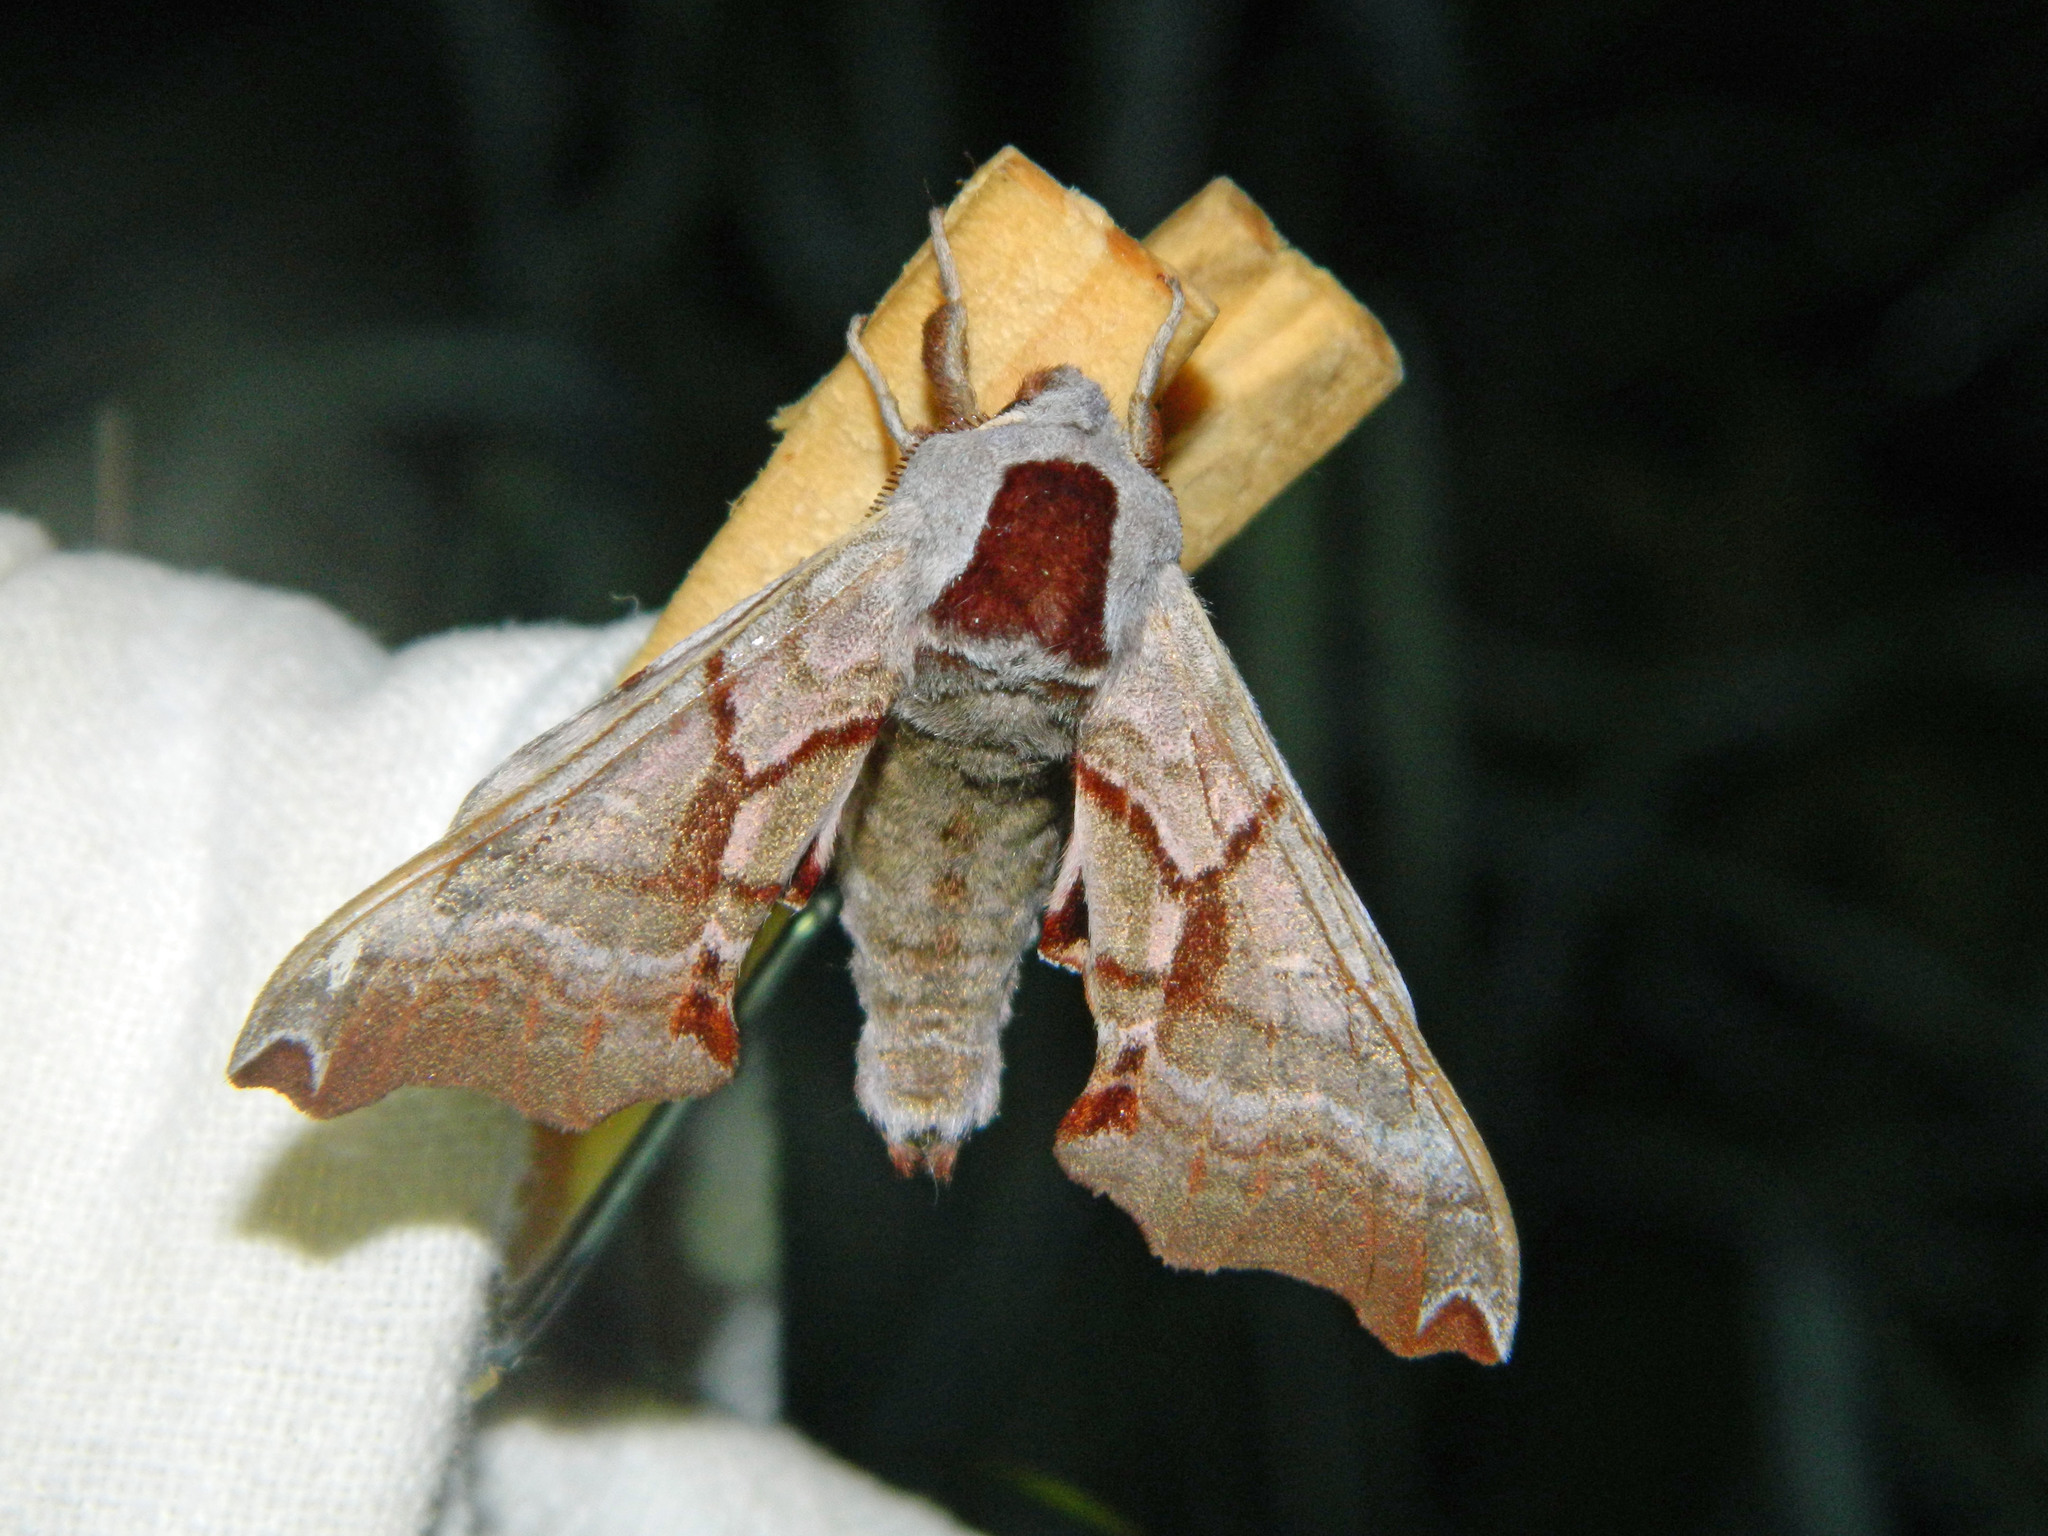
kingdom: Animalia
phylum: Arthropoda
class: Insecta
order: Lepidoptera
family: Sphingidae
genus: Smerinthus
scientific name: Smerinthus jamaicensis
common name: Twin spotted sphinx
